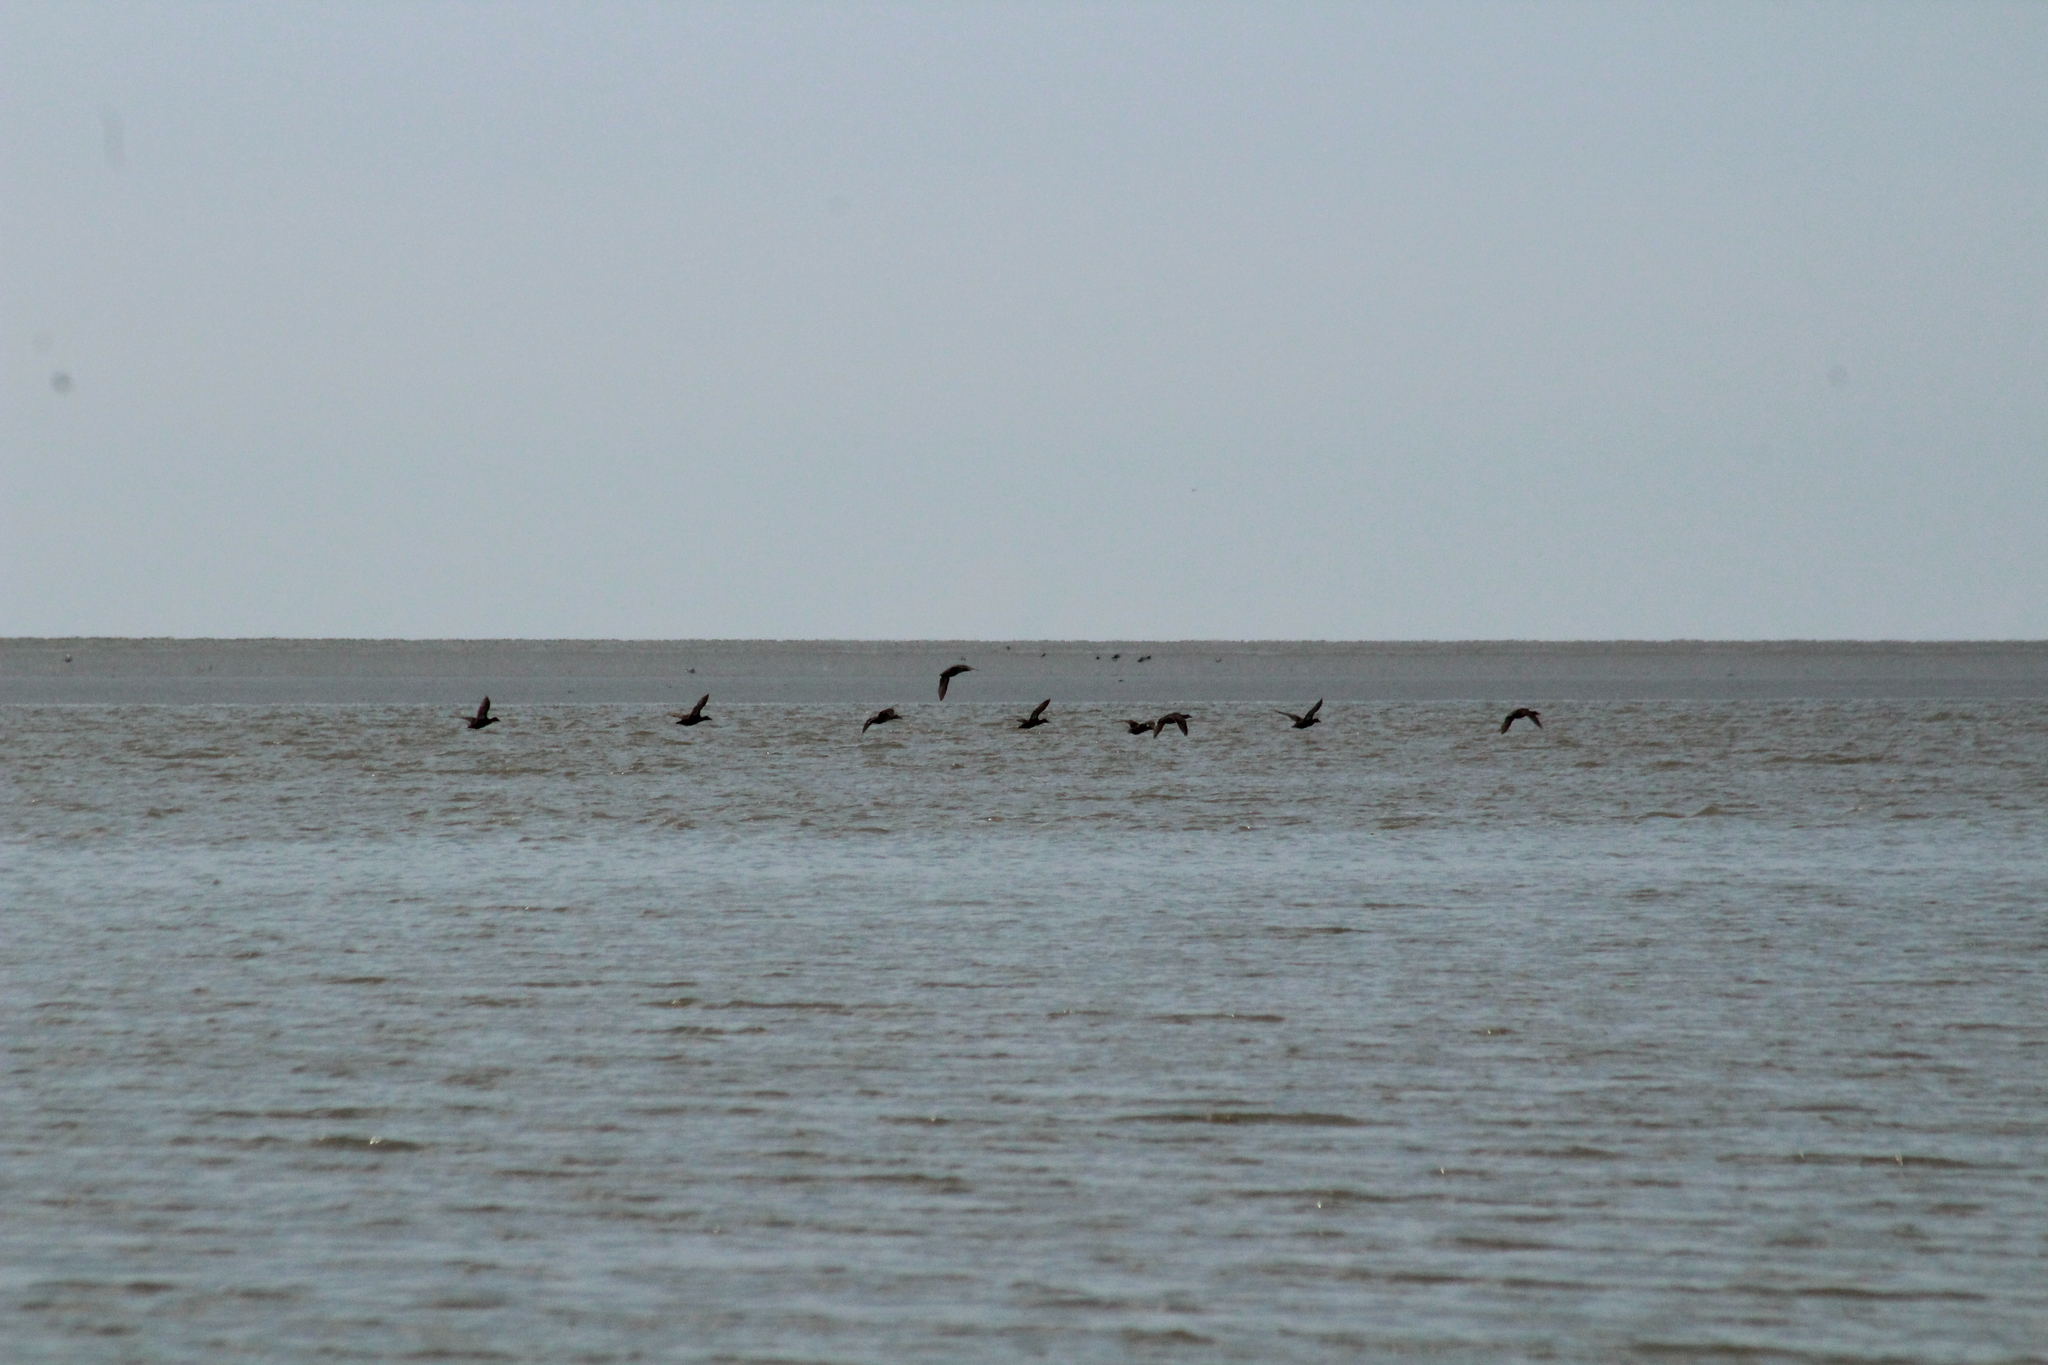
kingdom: Animalia
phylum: Chordata
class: Aves
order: Anseriformes
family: Anatidae
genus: Somateria
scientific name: Somateria mollissima
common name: Common eider
